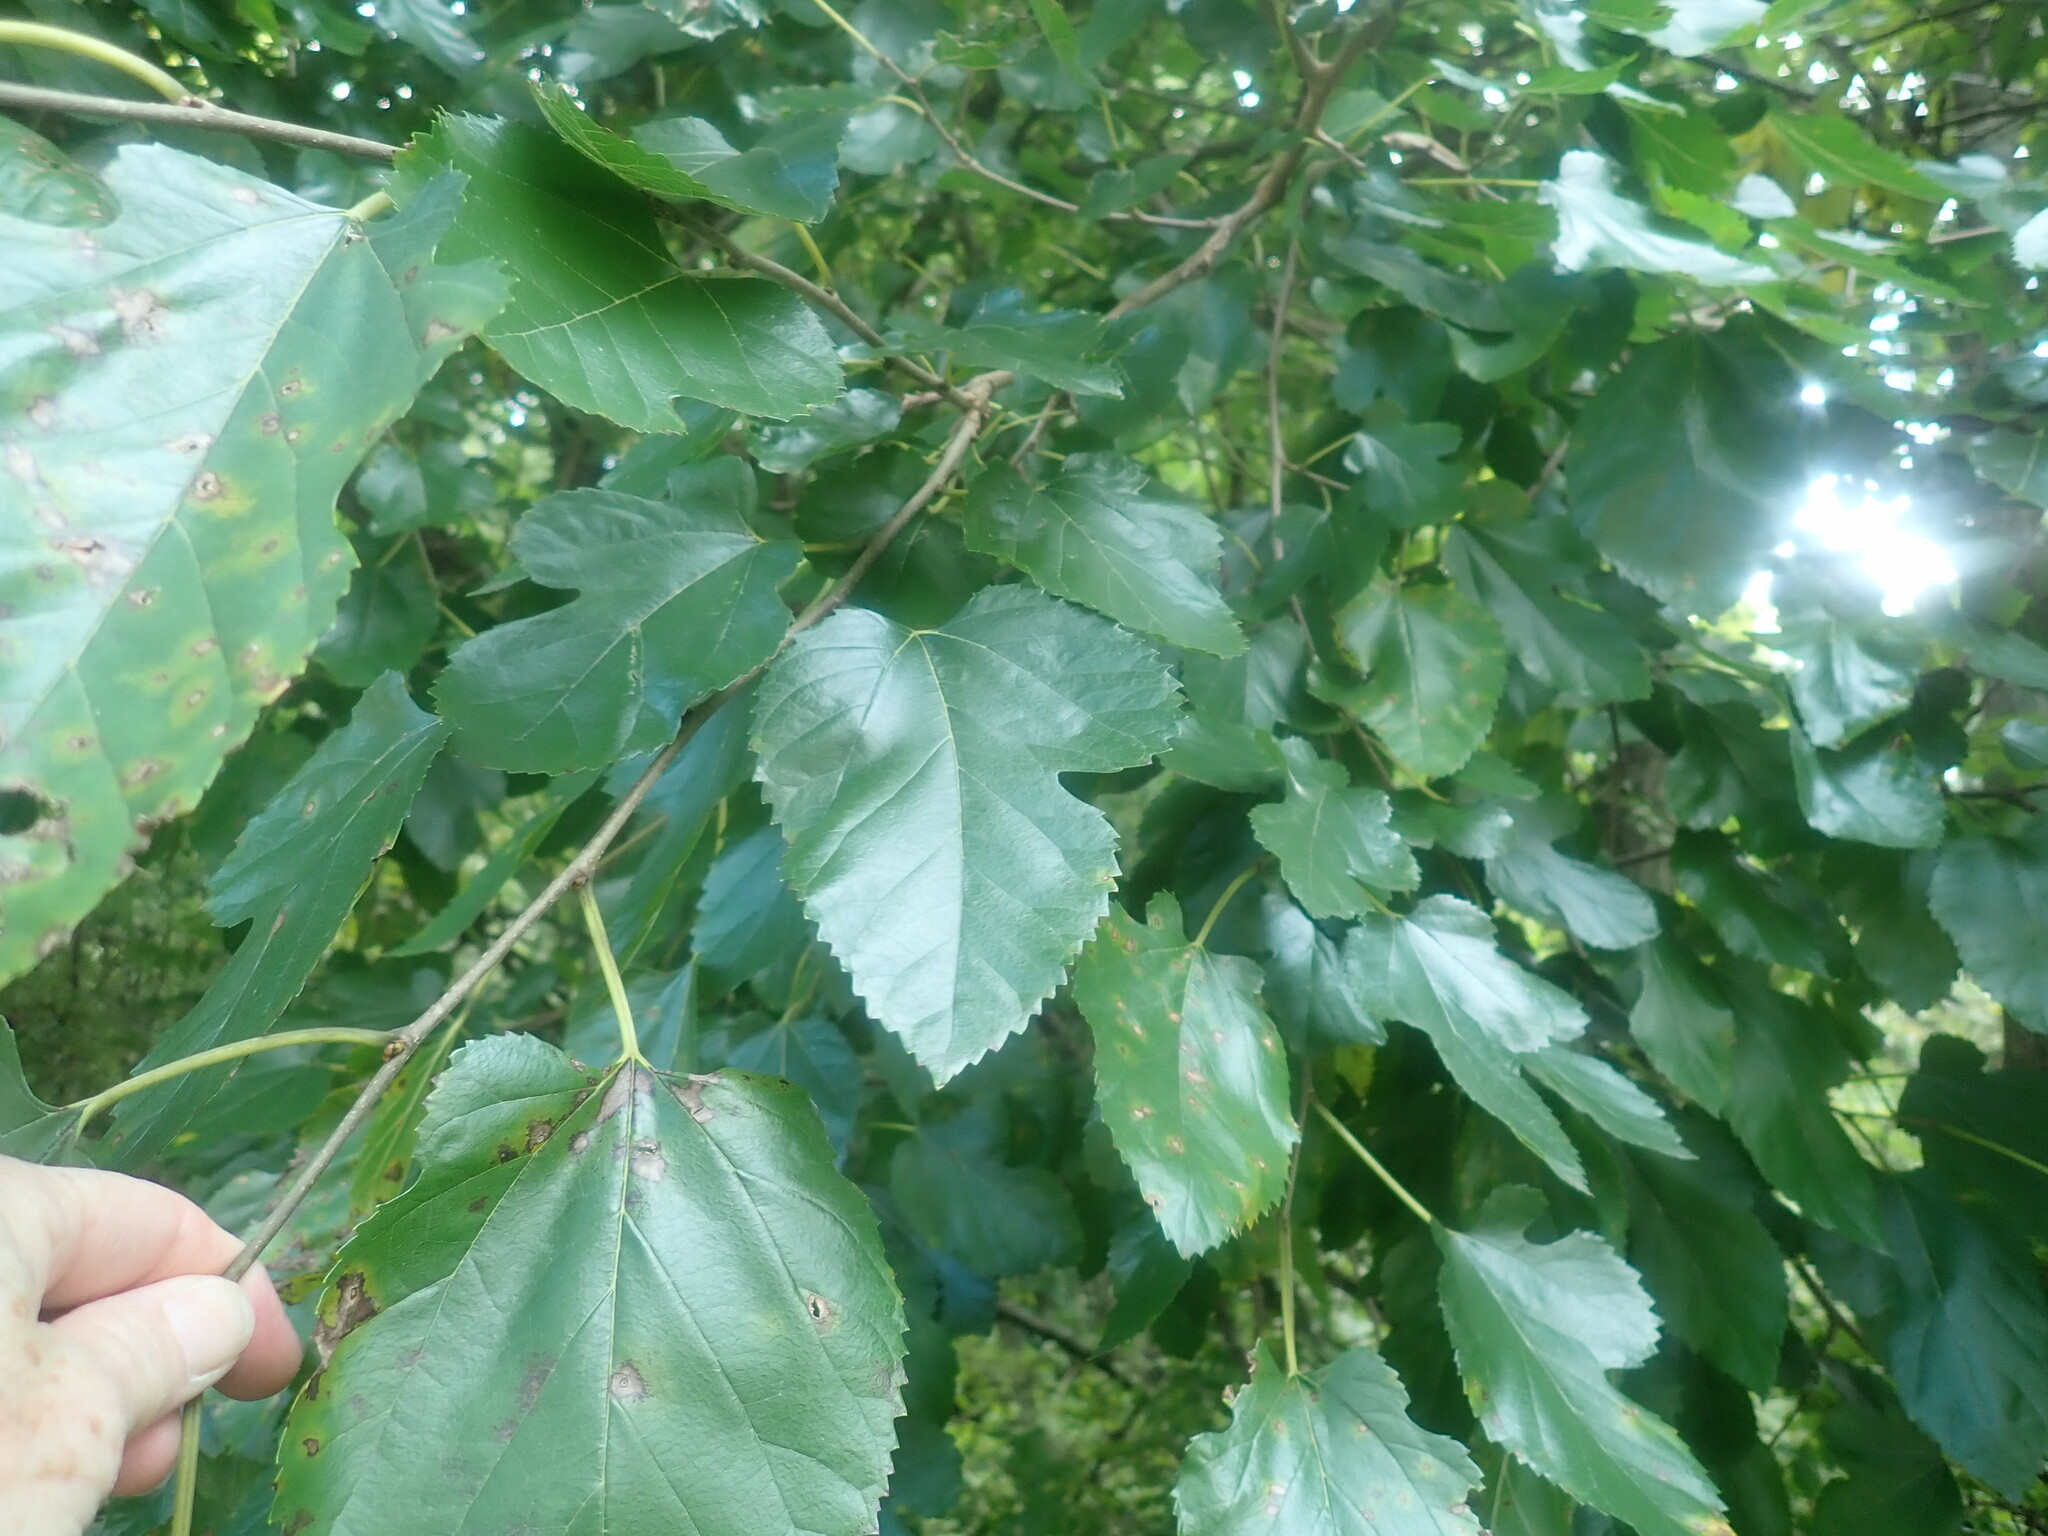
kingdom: Plantae
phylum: Tracheophyta
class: Magnoliopsida
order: Rosales
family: Moraceae
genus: Morus
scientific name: Morus
